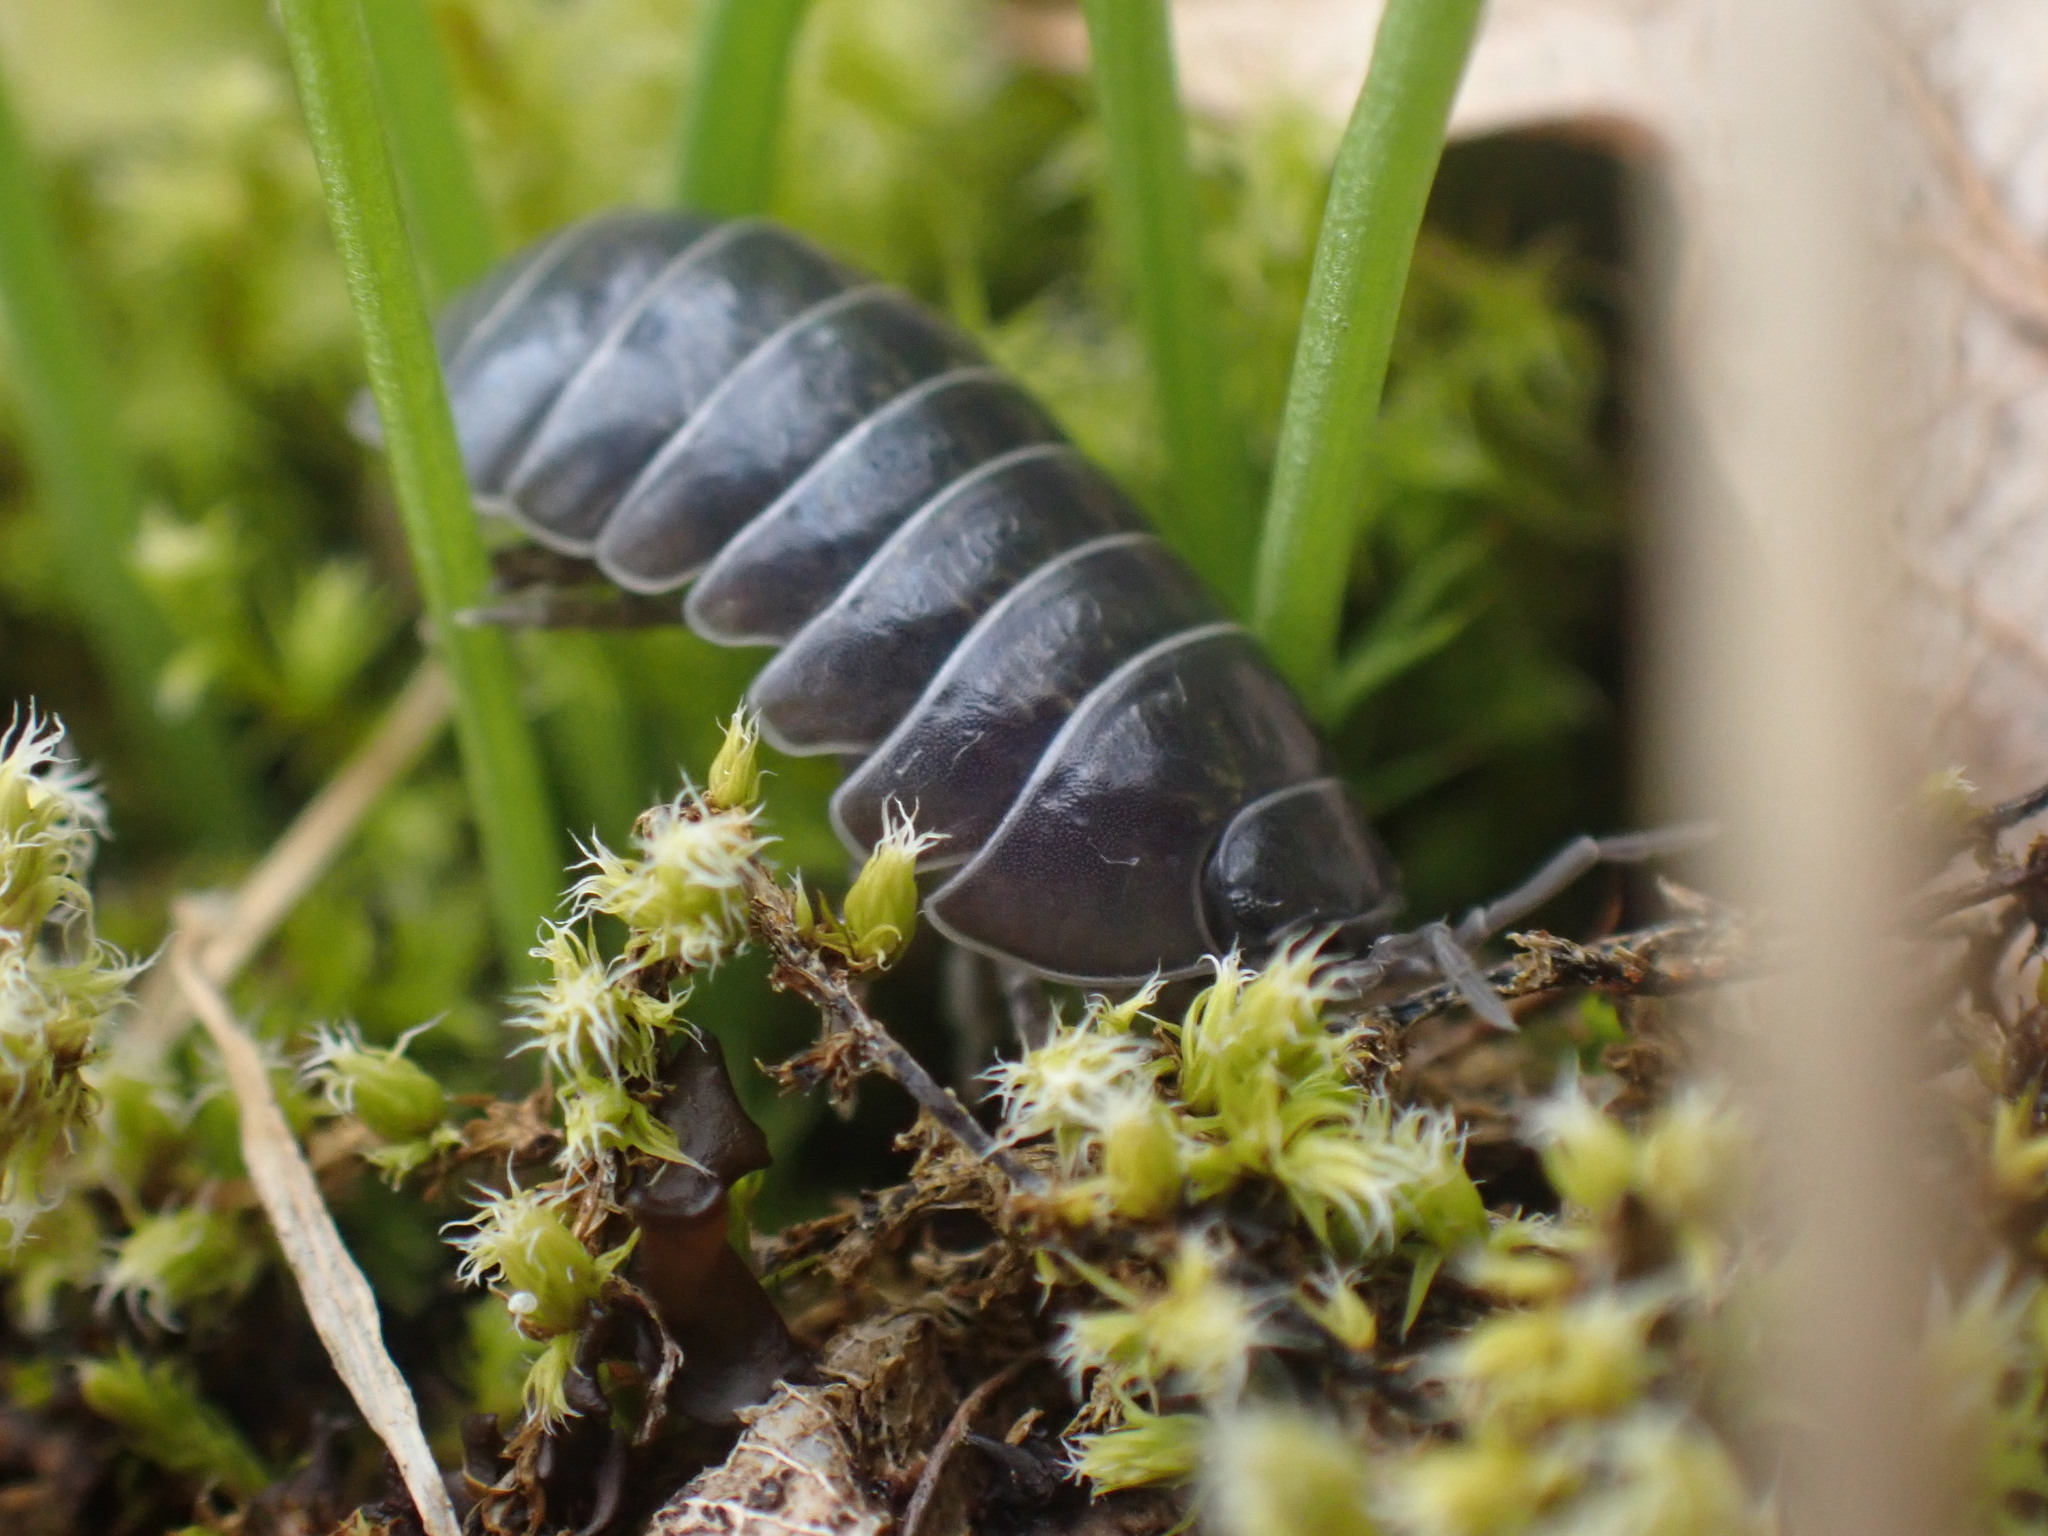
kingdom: Animalia
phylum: Arthropoda
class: Malacostraca
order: Isopoda
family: Armadillidiidae
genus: Armadillidium
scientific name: Armadillidium vulgare
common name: Common pill woodlouse
